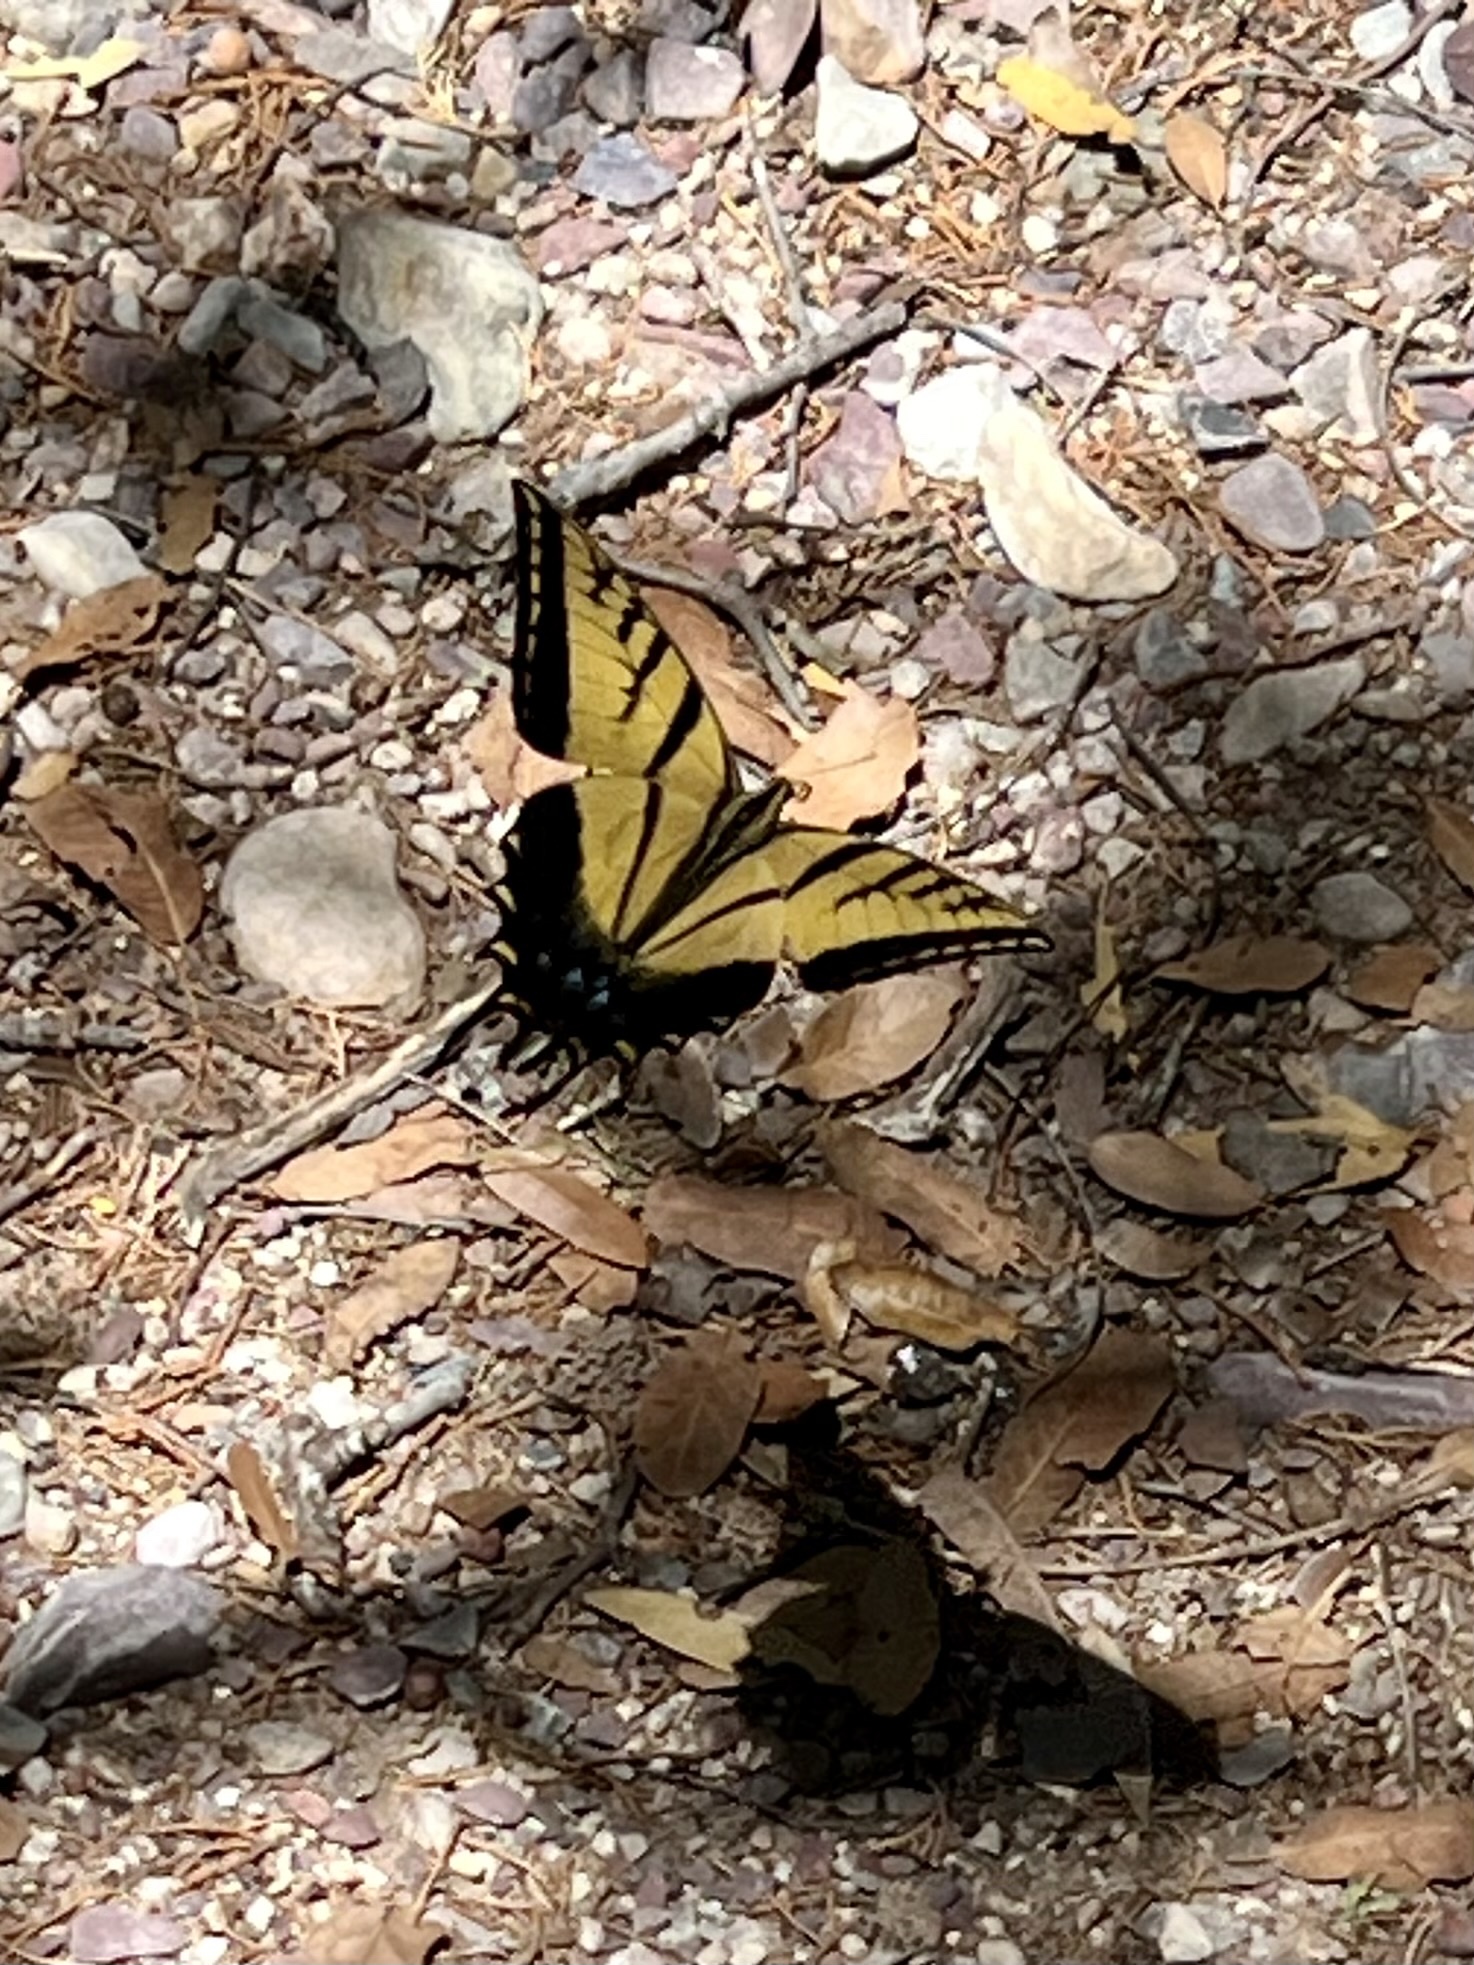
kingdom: Animalia
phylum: Arthropoda
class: Insecta
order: Lepidoptera
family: Papilionidae
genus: Papilio
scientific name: Papilio multicaudata
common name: Two-tailed tiger swallowtail
